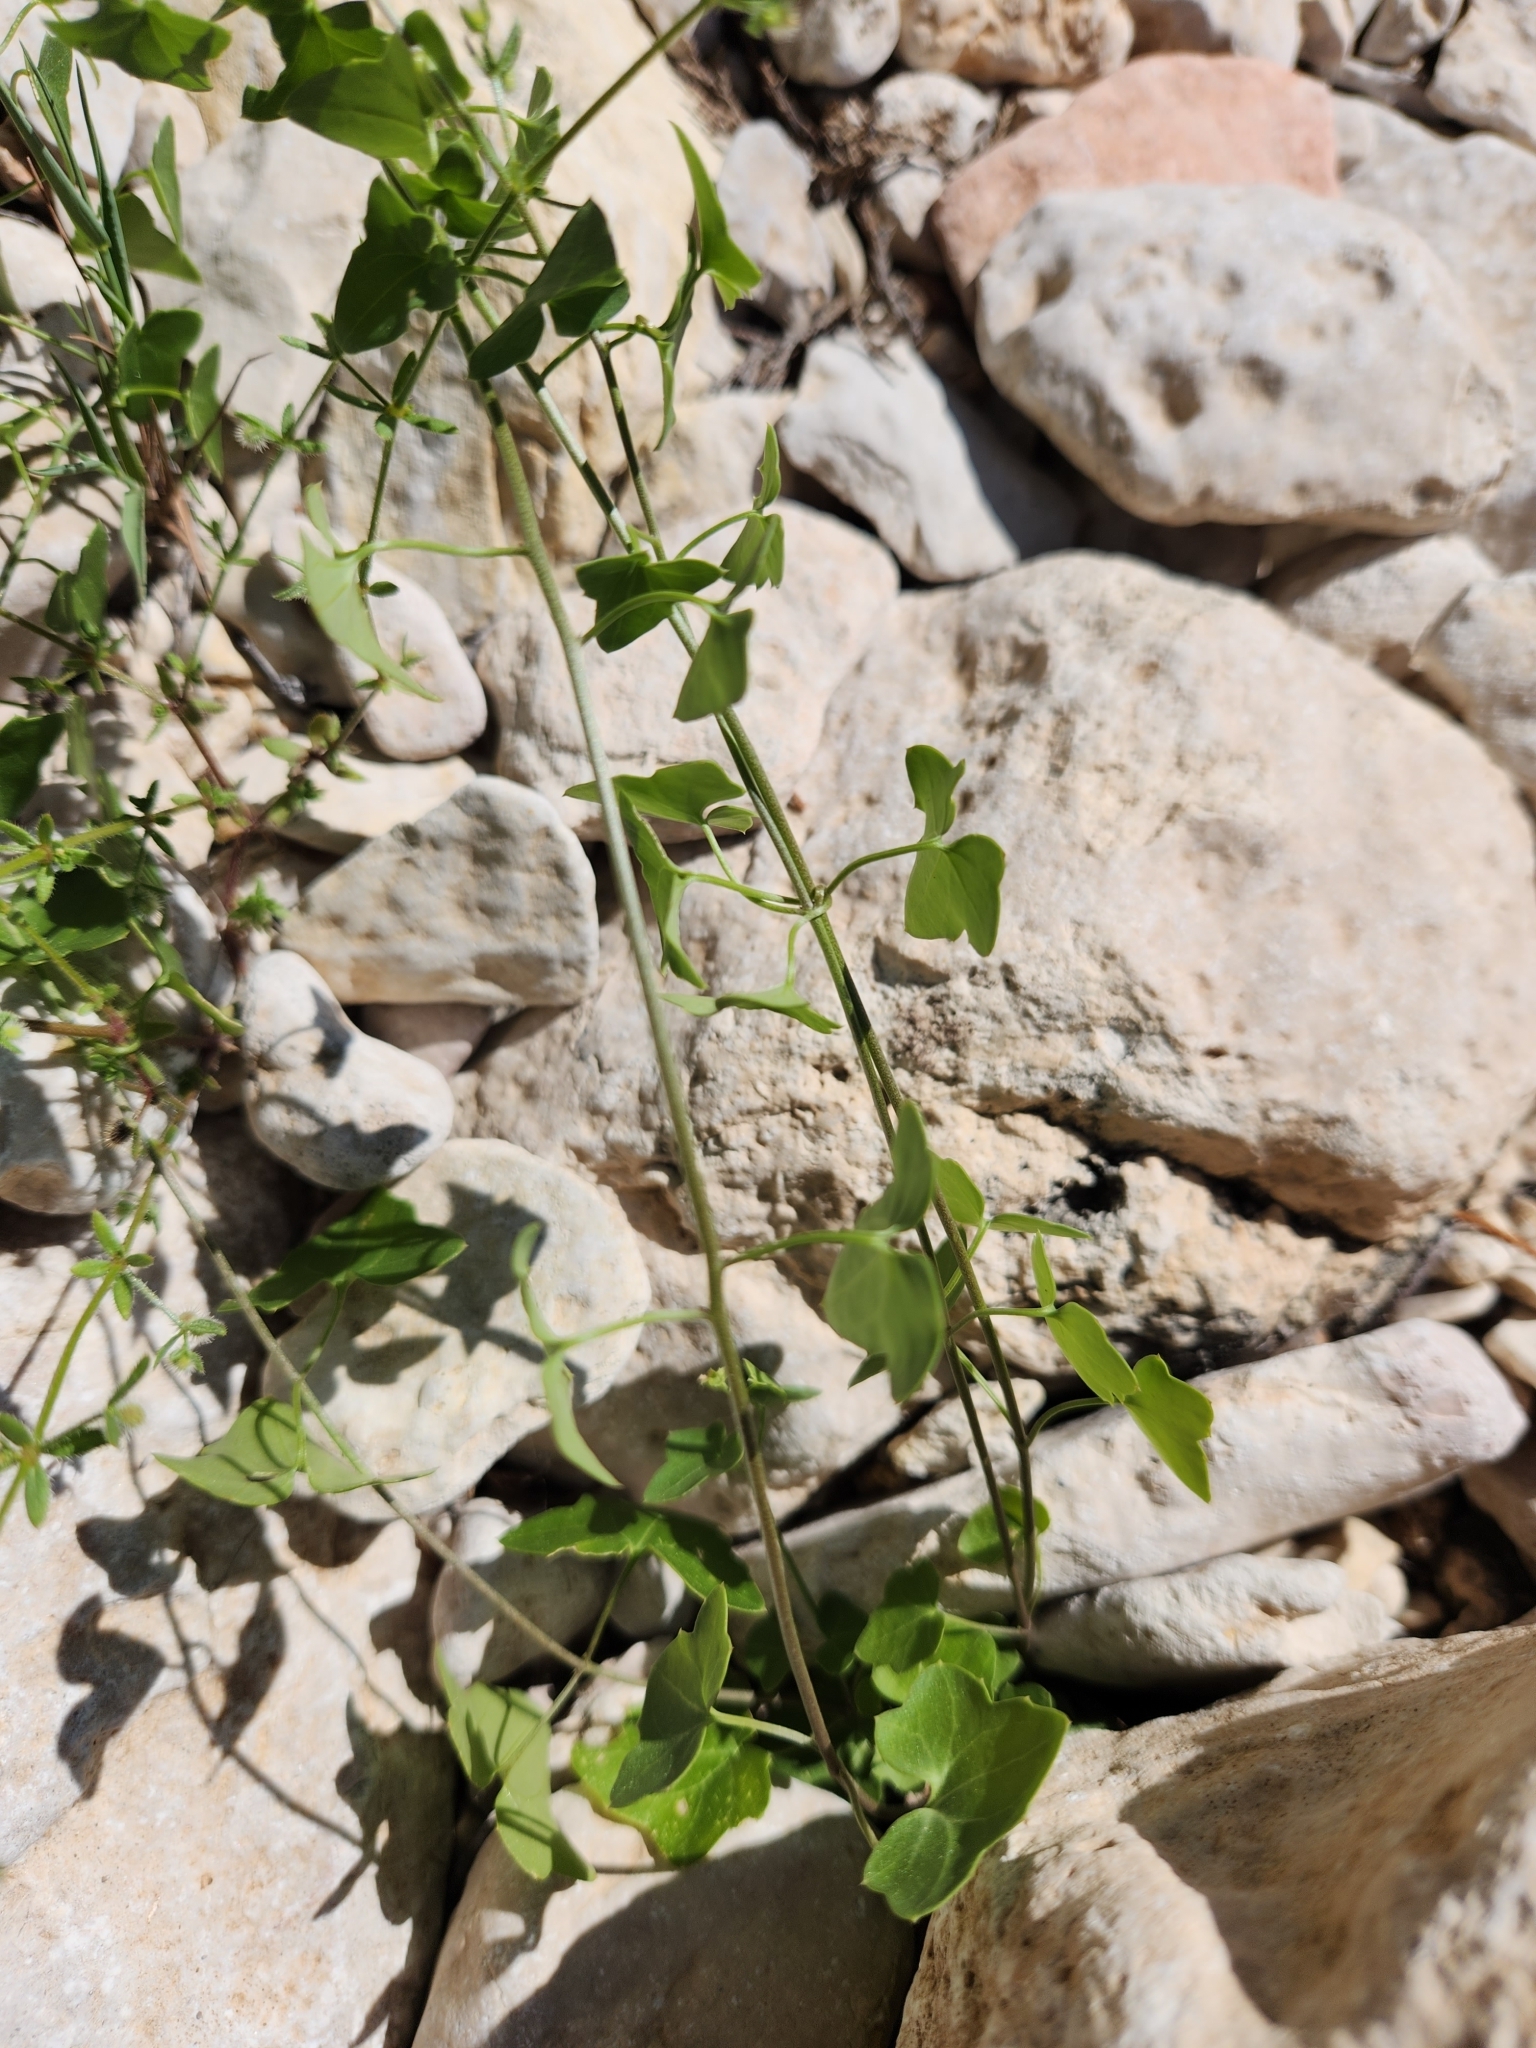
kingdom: Plantae
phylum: Tracheophyta
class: Magnoliopsida
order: Lamiales
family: Plantaginaceae
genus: Maurandella
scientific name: Maurandella antirrhiniflora
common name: Violet twining-snapdragon
